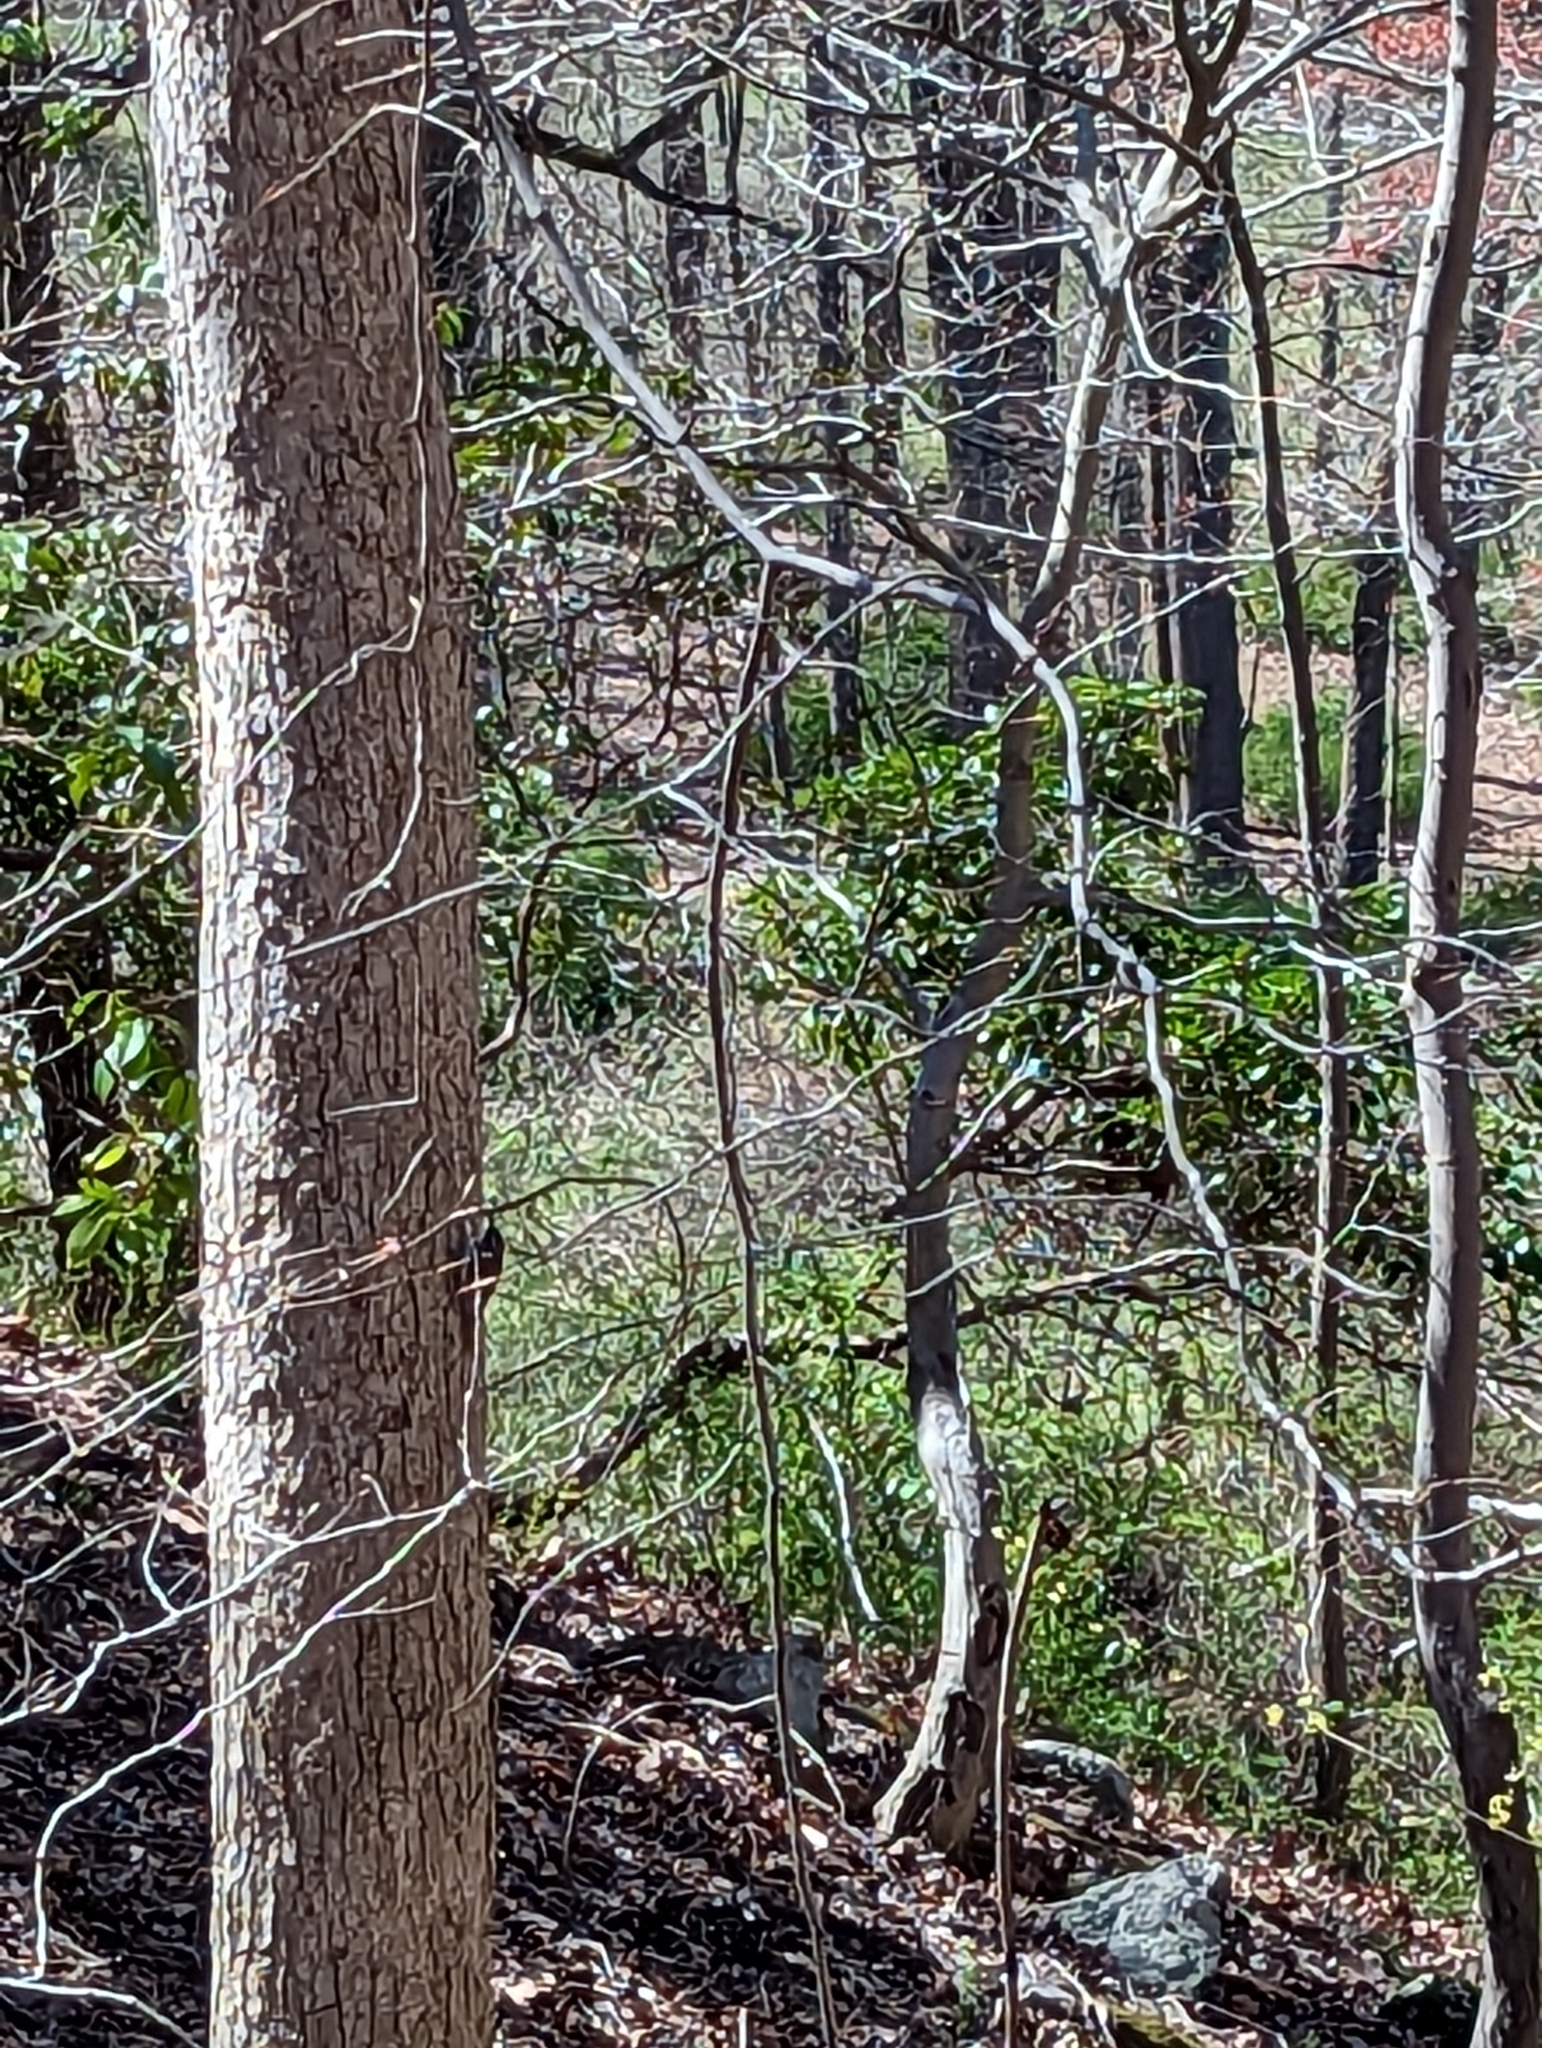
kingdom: Animalia
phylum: Chordata
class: Aves
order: Passeriformes
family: Certhiidae
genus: Certhia
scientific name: Certhia americana
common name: Brown creeper
